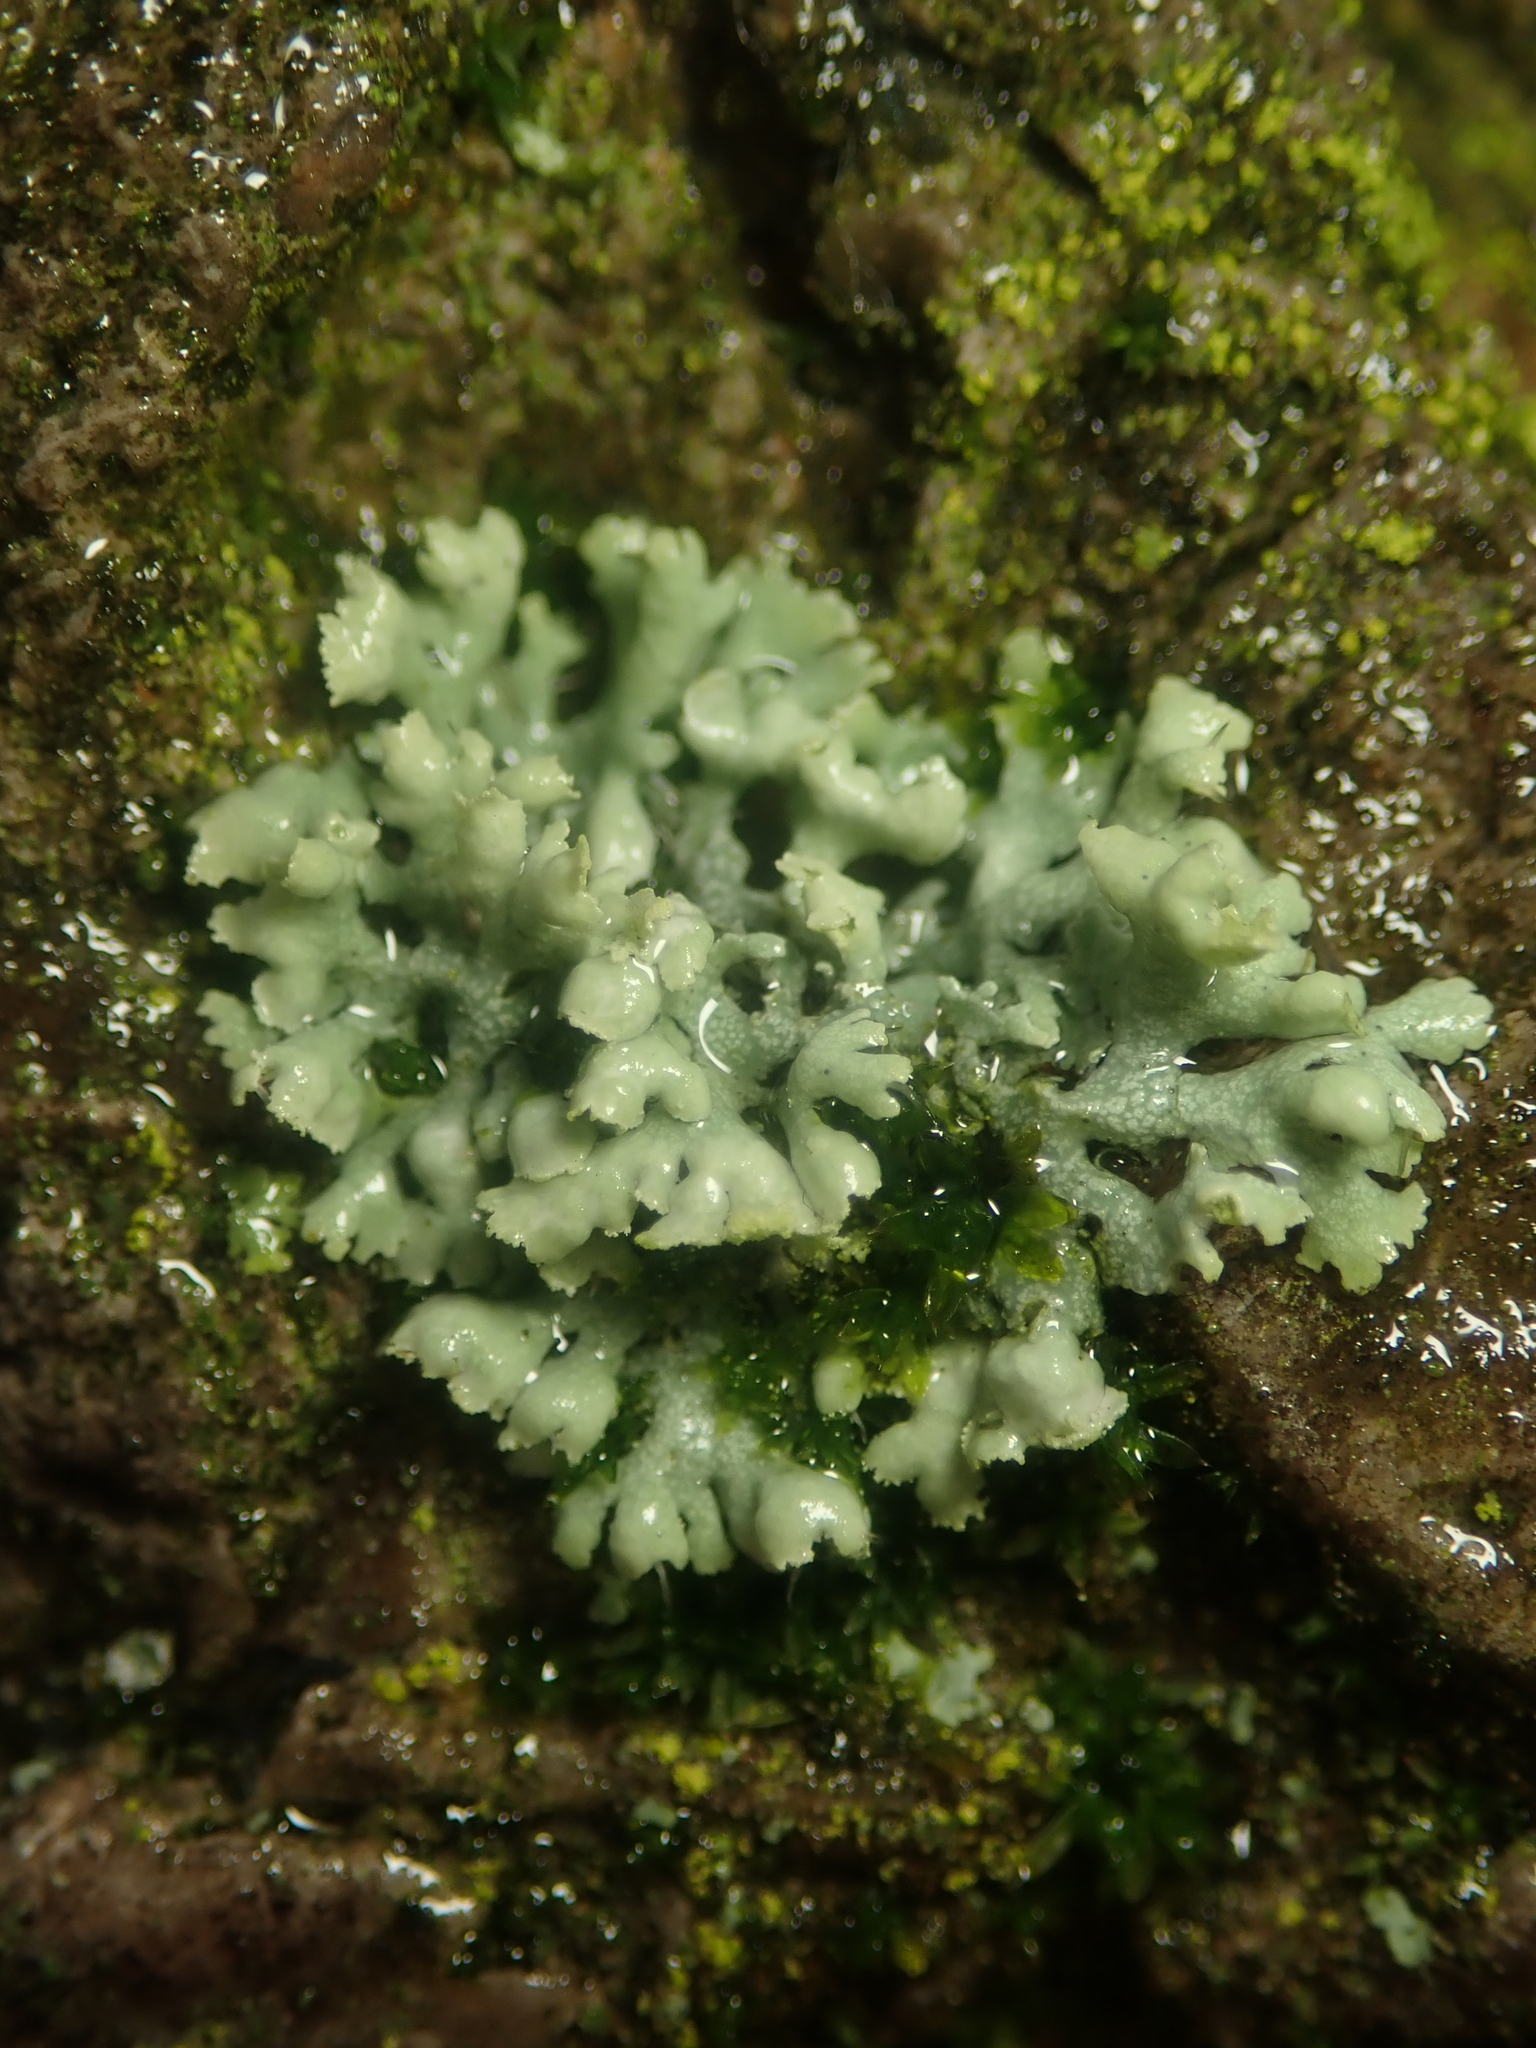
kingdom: Fungi
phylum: Ascomycota
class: Lecanoromycetes
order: Caliciales
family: Physciaceae
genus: Physcia
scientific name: Physcia adscendens
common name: Hooded rosette lichen
